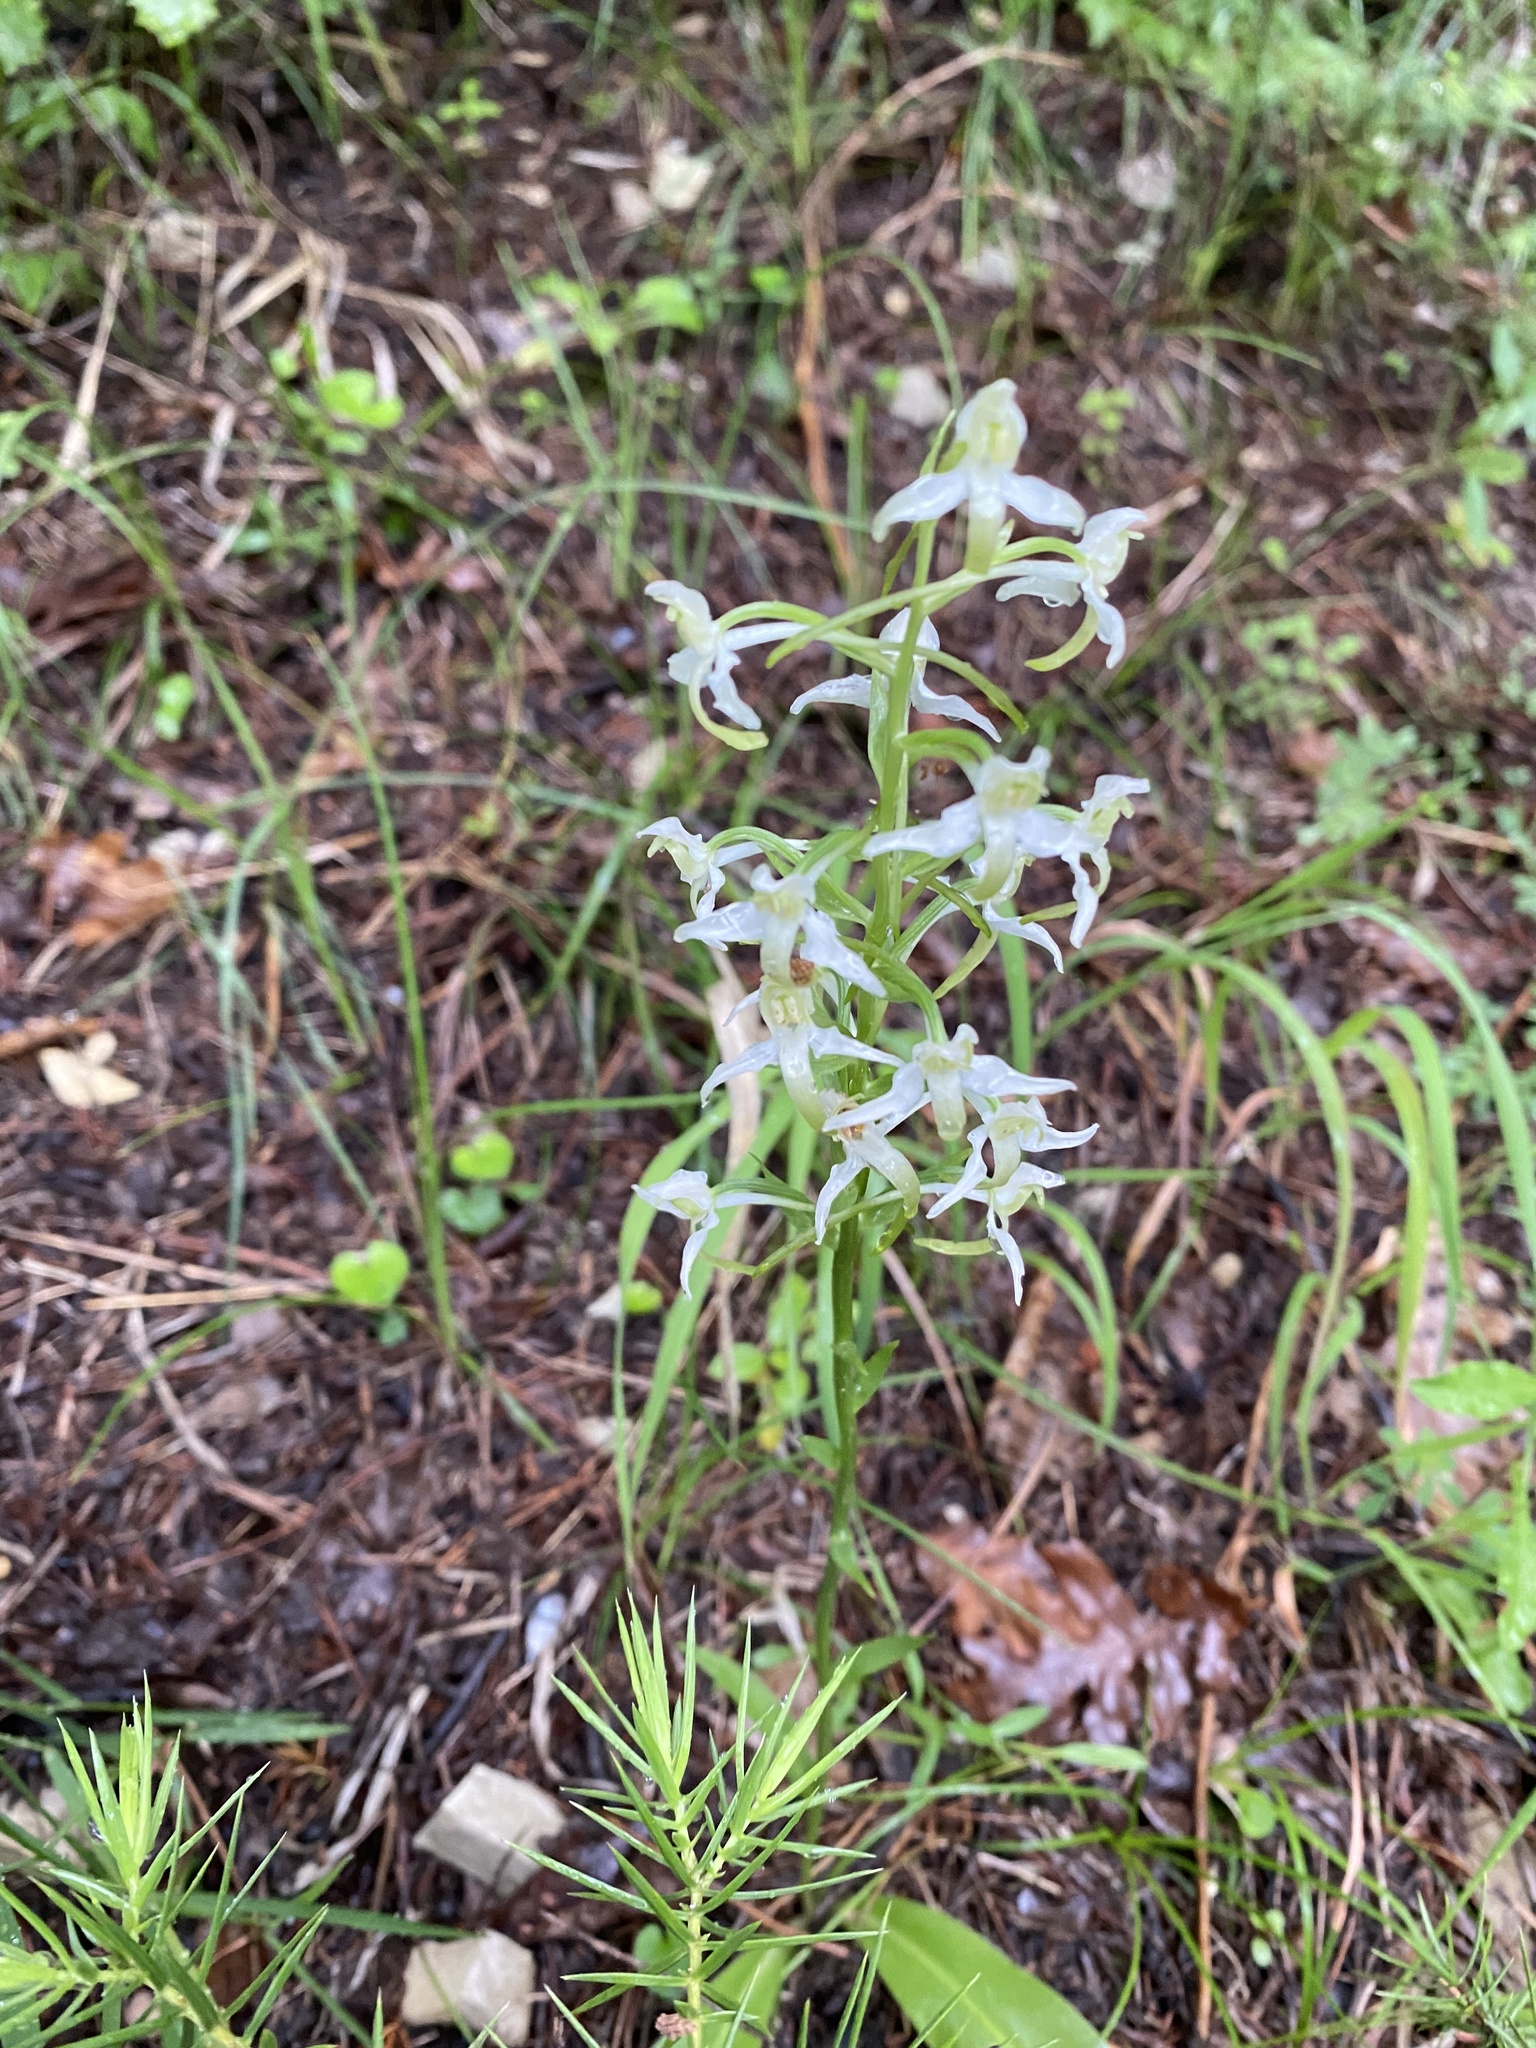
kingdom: Plantae
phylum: Tracheophyta
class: Liliopsida
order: Asparagales
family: Orchidaceae
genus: Platanthera
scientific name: Platanthera bifolia
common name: Lesser butterfly-orchid
